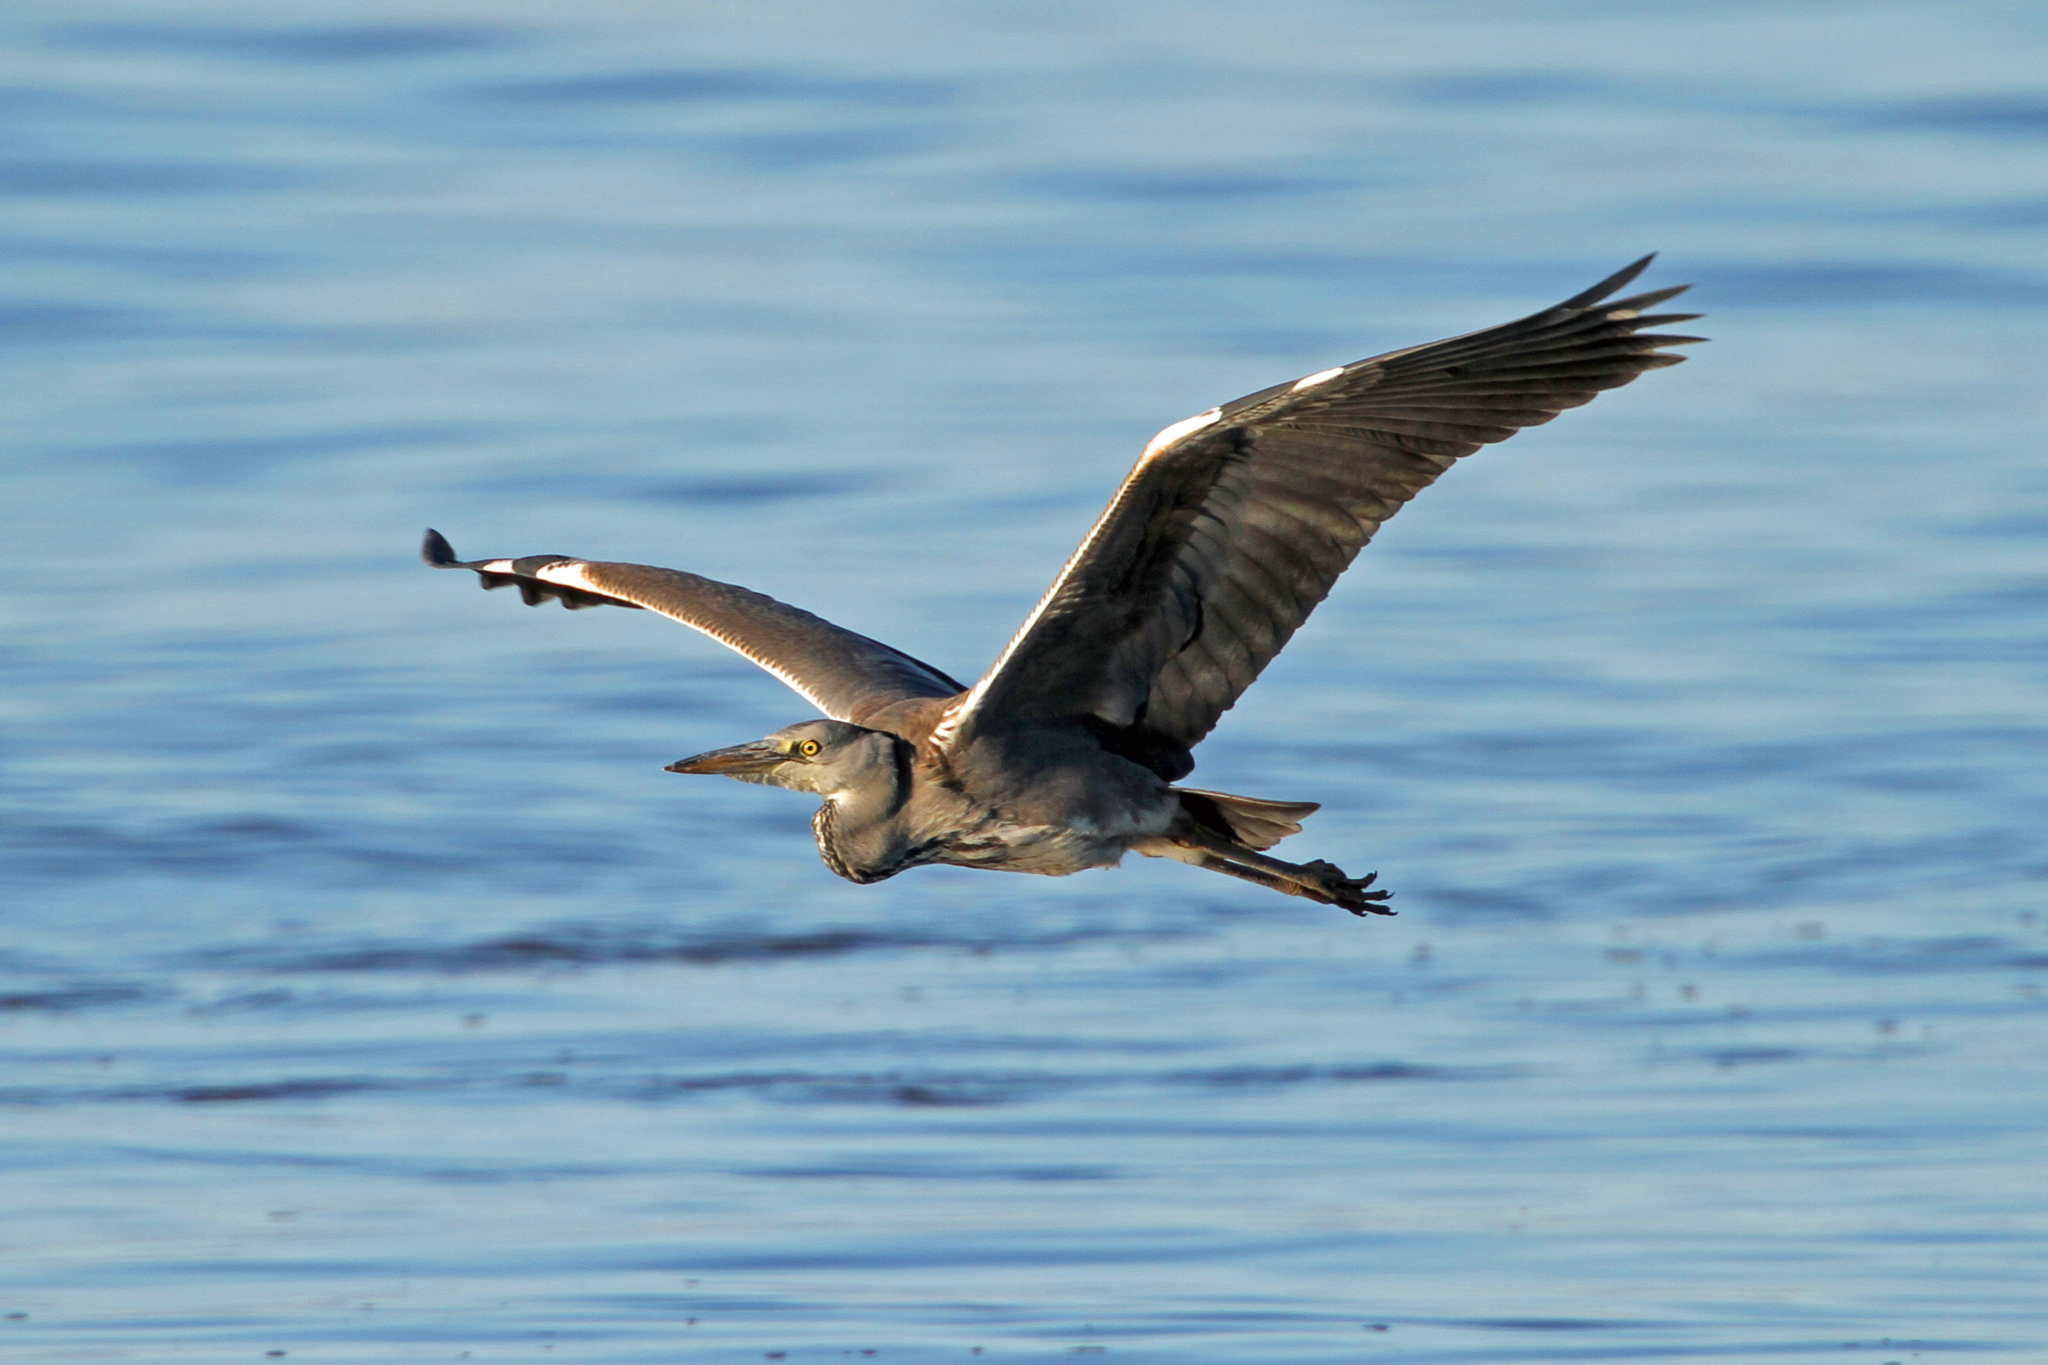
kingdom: Animalia
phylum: Chordata
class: Aves
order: Pelecaniformes
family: Ardeidae
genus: Ardea
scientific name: Ardea cinerea
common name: Grey heron
